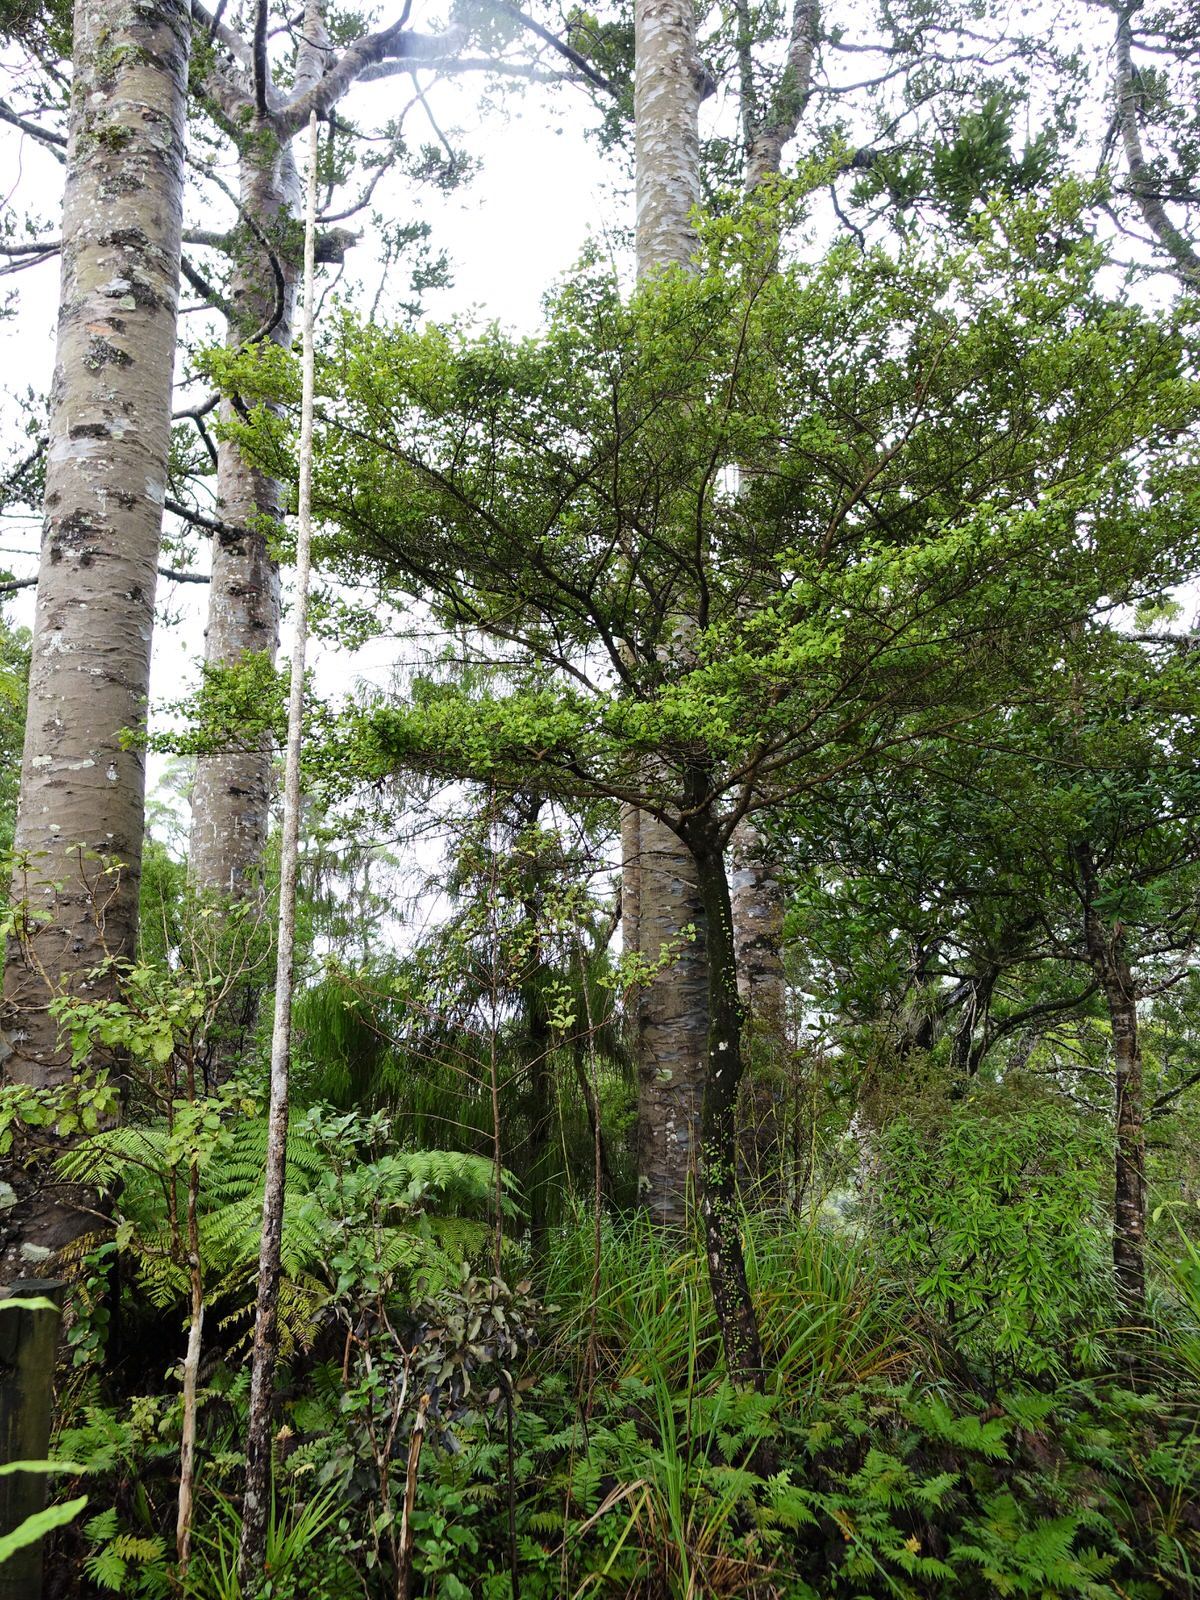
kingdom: Plantae
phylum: Tracheophyta
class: Magnoliopsida
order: Gentianales
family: Rubiaceae
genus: Coprosma
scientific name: Coprosma arborea
